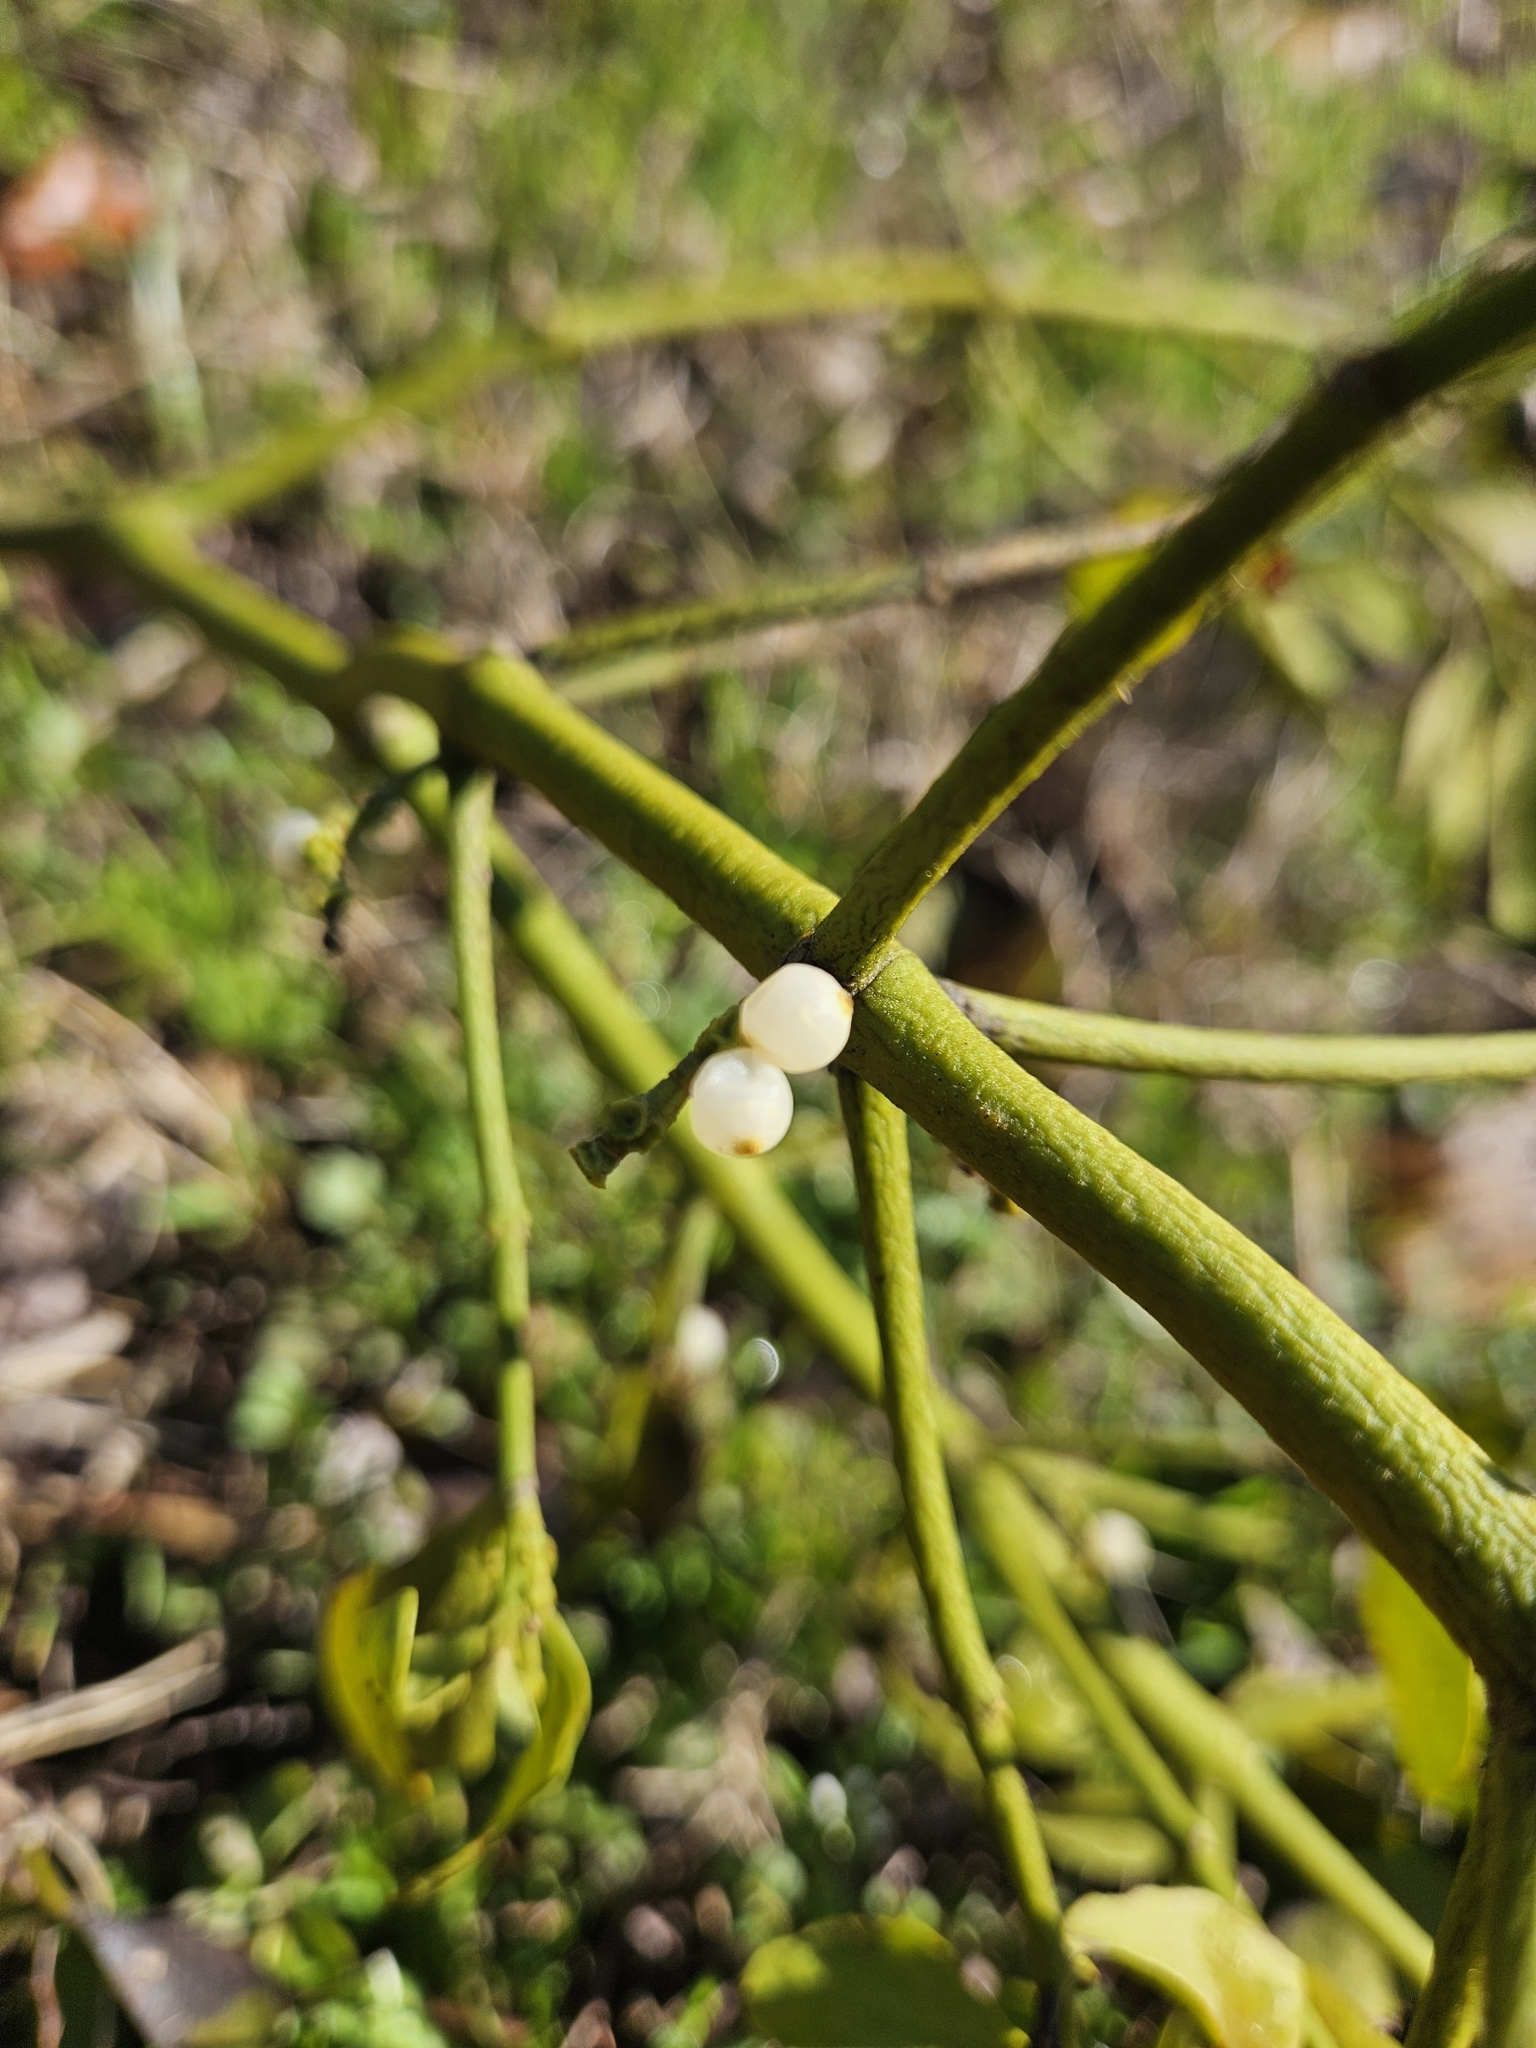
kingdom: Plantae
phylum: Tracheophyta
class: Magnoliopsida
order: Santalales
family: Viscaceae
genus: Phoradendron
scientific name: Phoradendron leucarpum
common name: Pacific mistletoe
